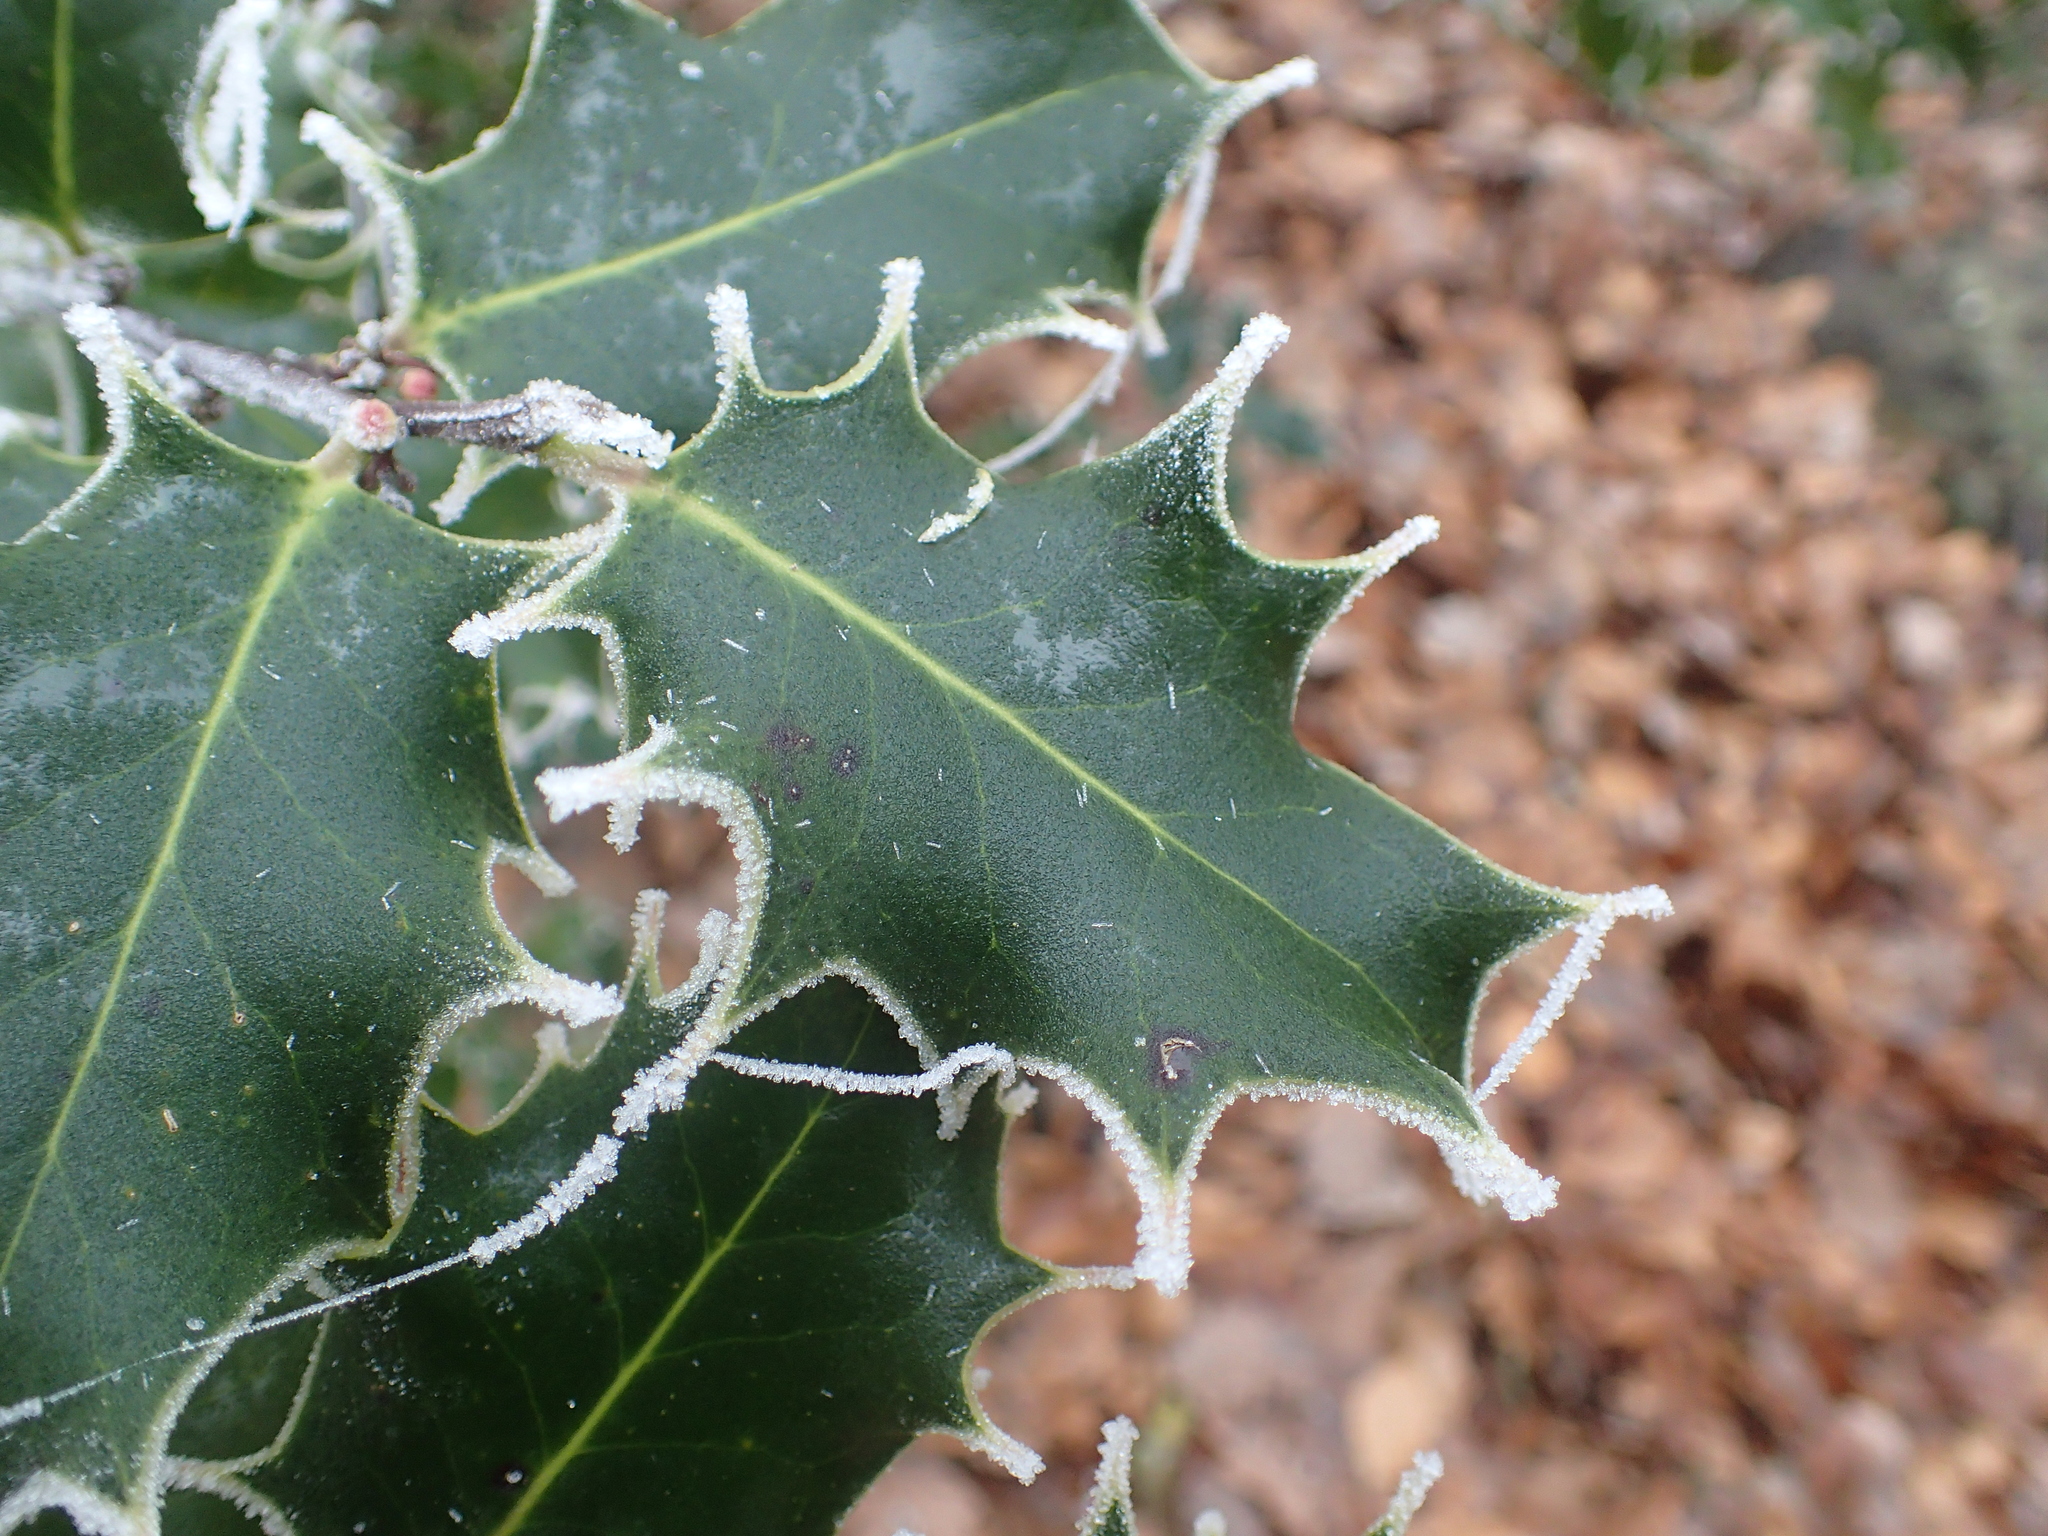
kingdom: Plantae
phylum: Tracheophyta
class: Magnoliopsida
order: Aquifoliales
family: Aquifoliaceae
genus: Ilex
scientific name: Ilex aquifolium
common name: English holly
